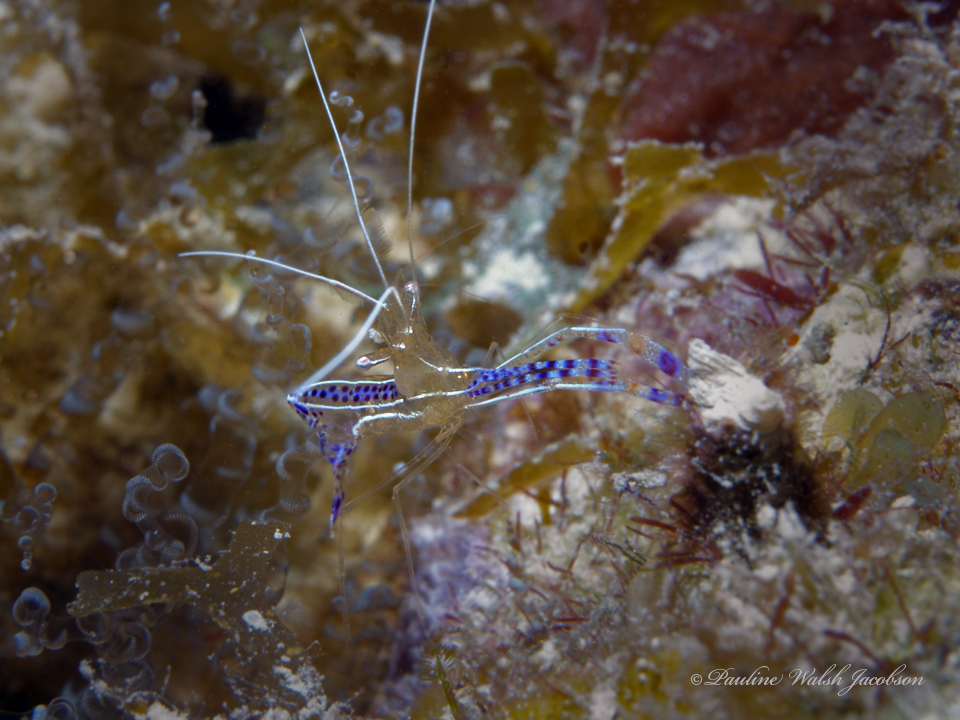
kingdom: Animalia
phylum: Arthropoda
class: Malacostraca
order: Decapoda
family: Palaemonidae
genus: Ancylomenes
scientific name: Ancylomenes pedersoni
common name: Pederson's cleaning shrimp
